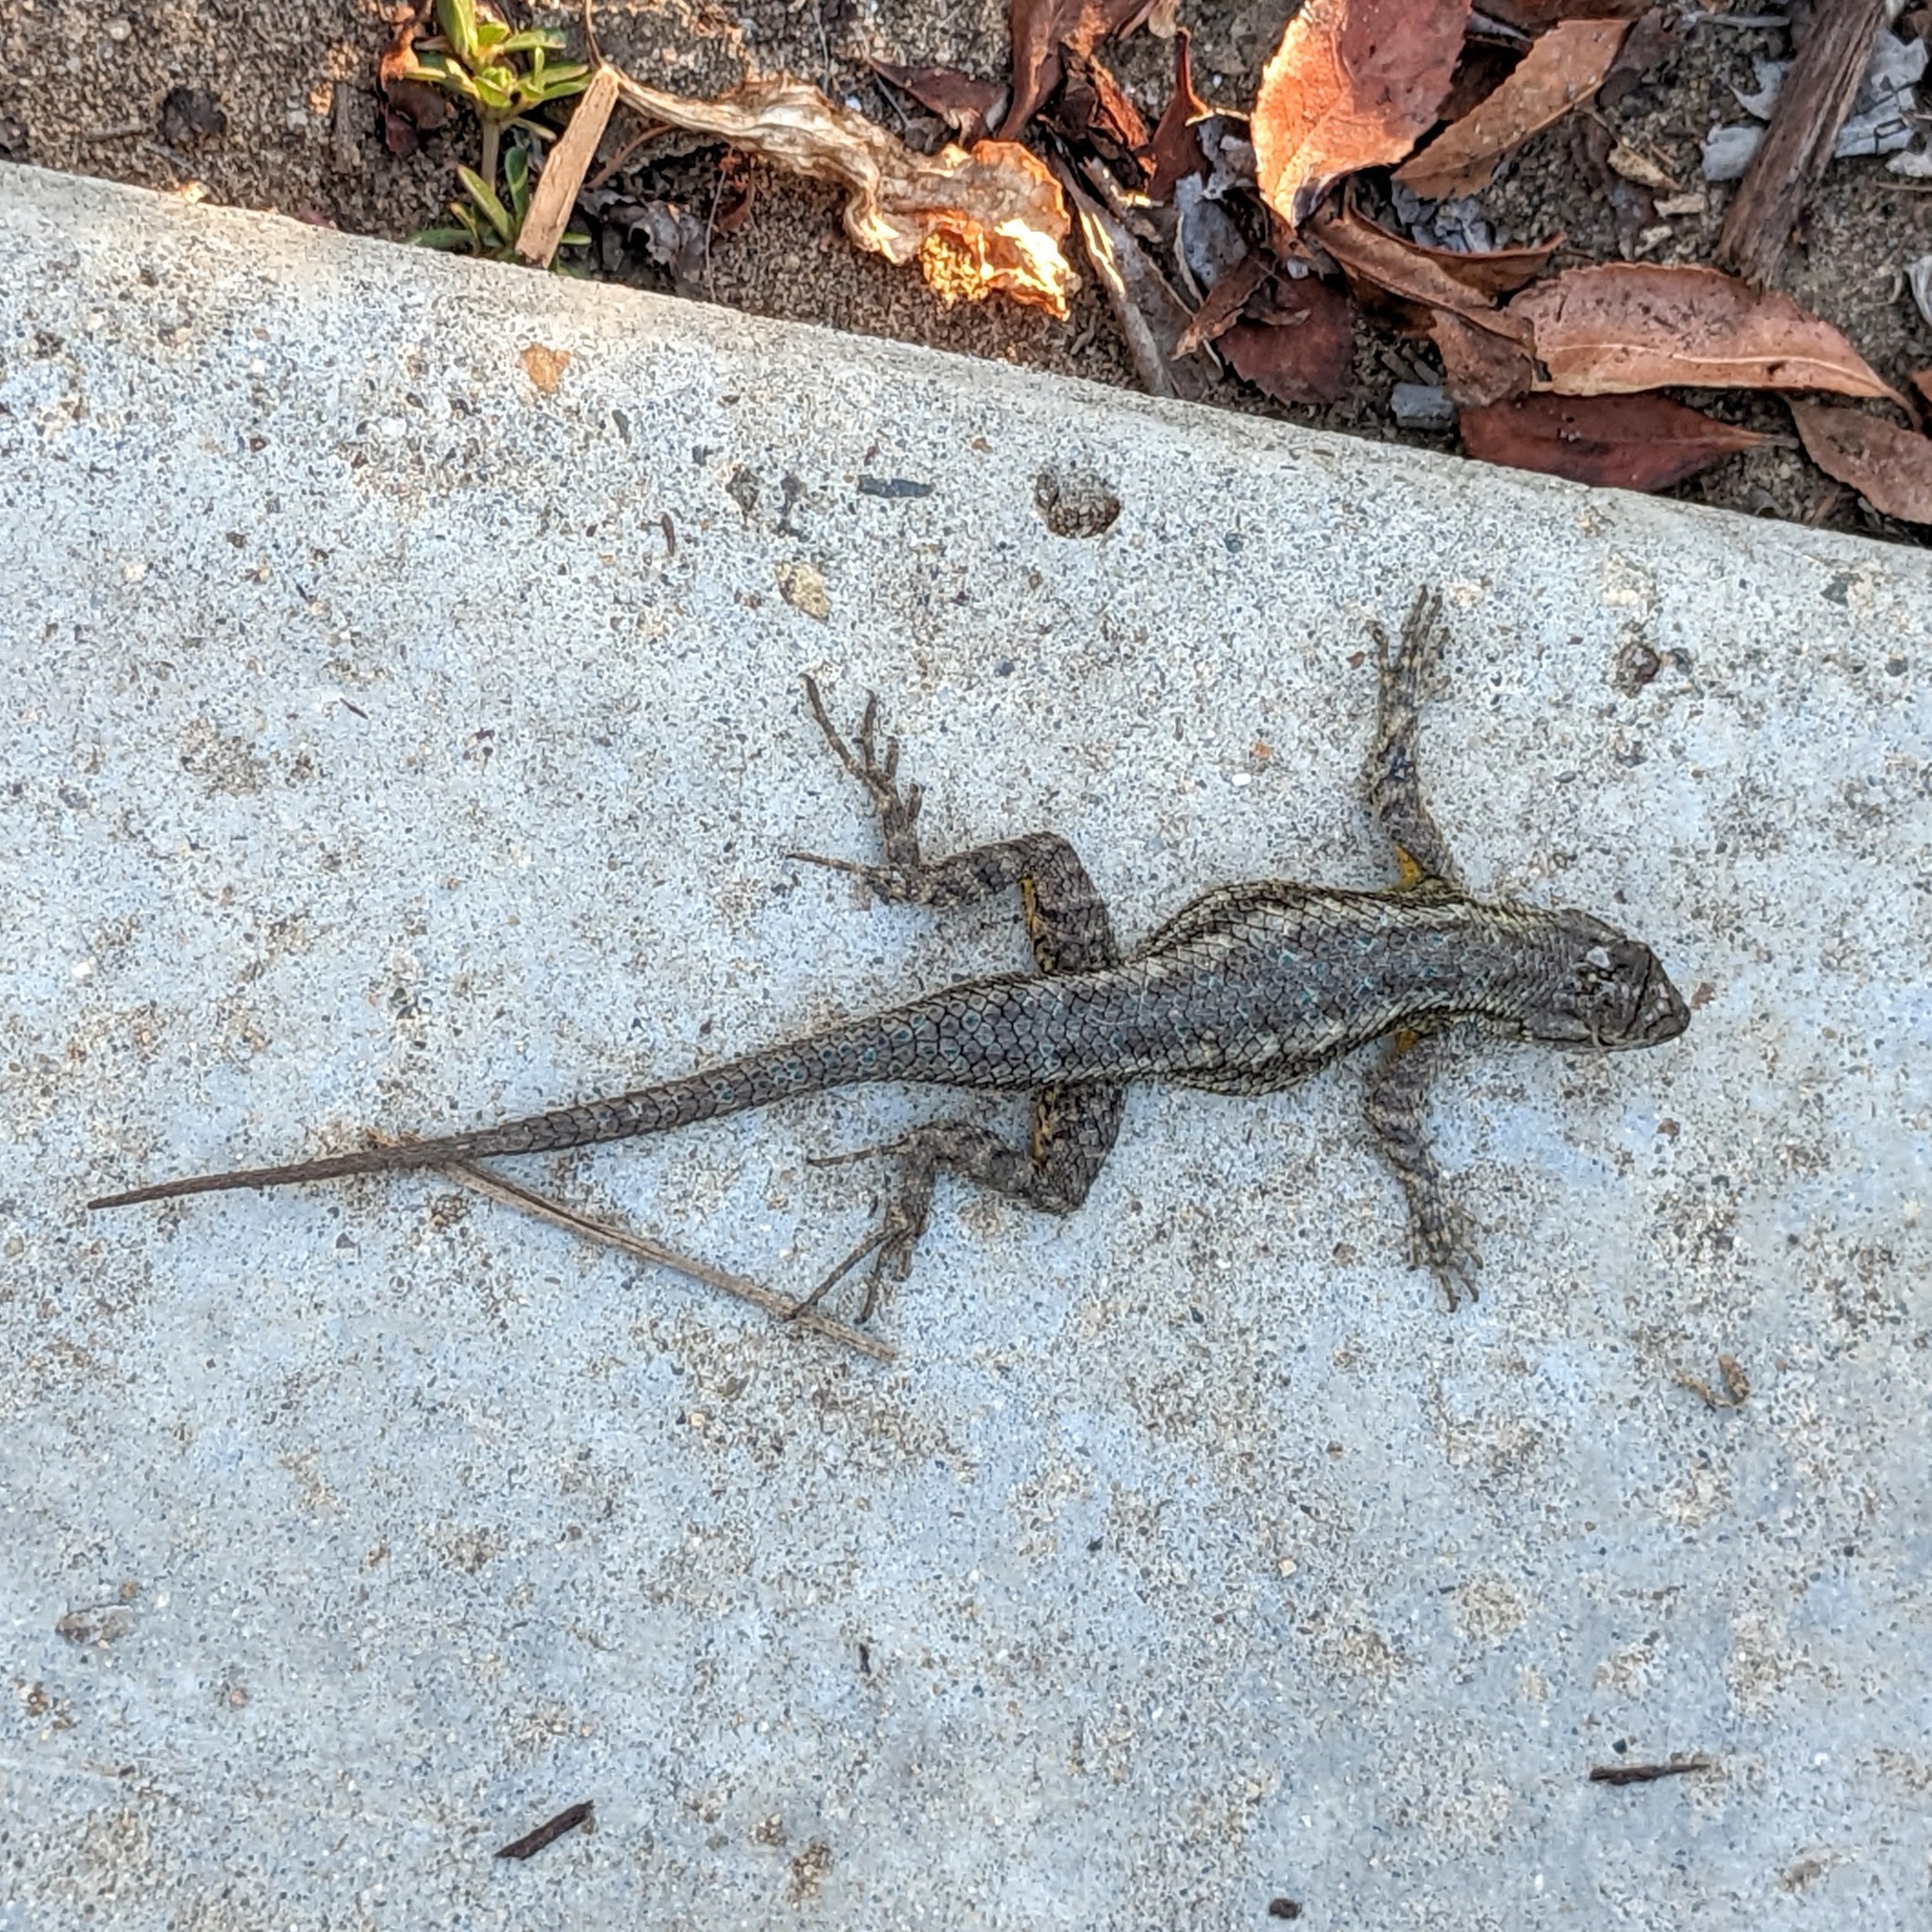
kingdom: Animalia
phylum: Chordata
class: Squamata
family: Phrynosomatidae
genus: Sceloporus
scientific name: Sceloporus occidentalis
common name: Western fence lizard
